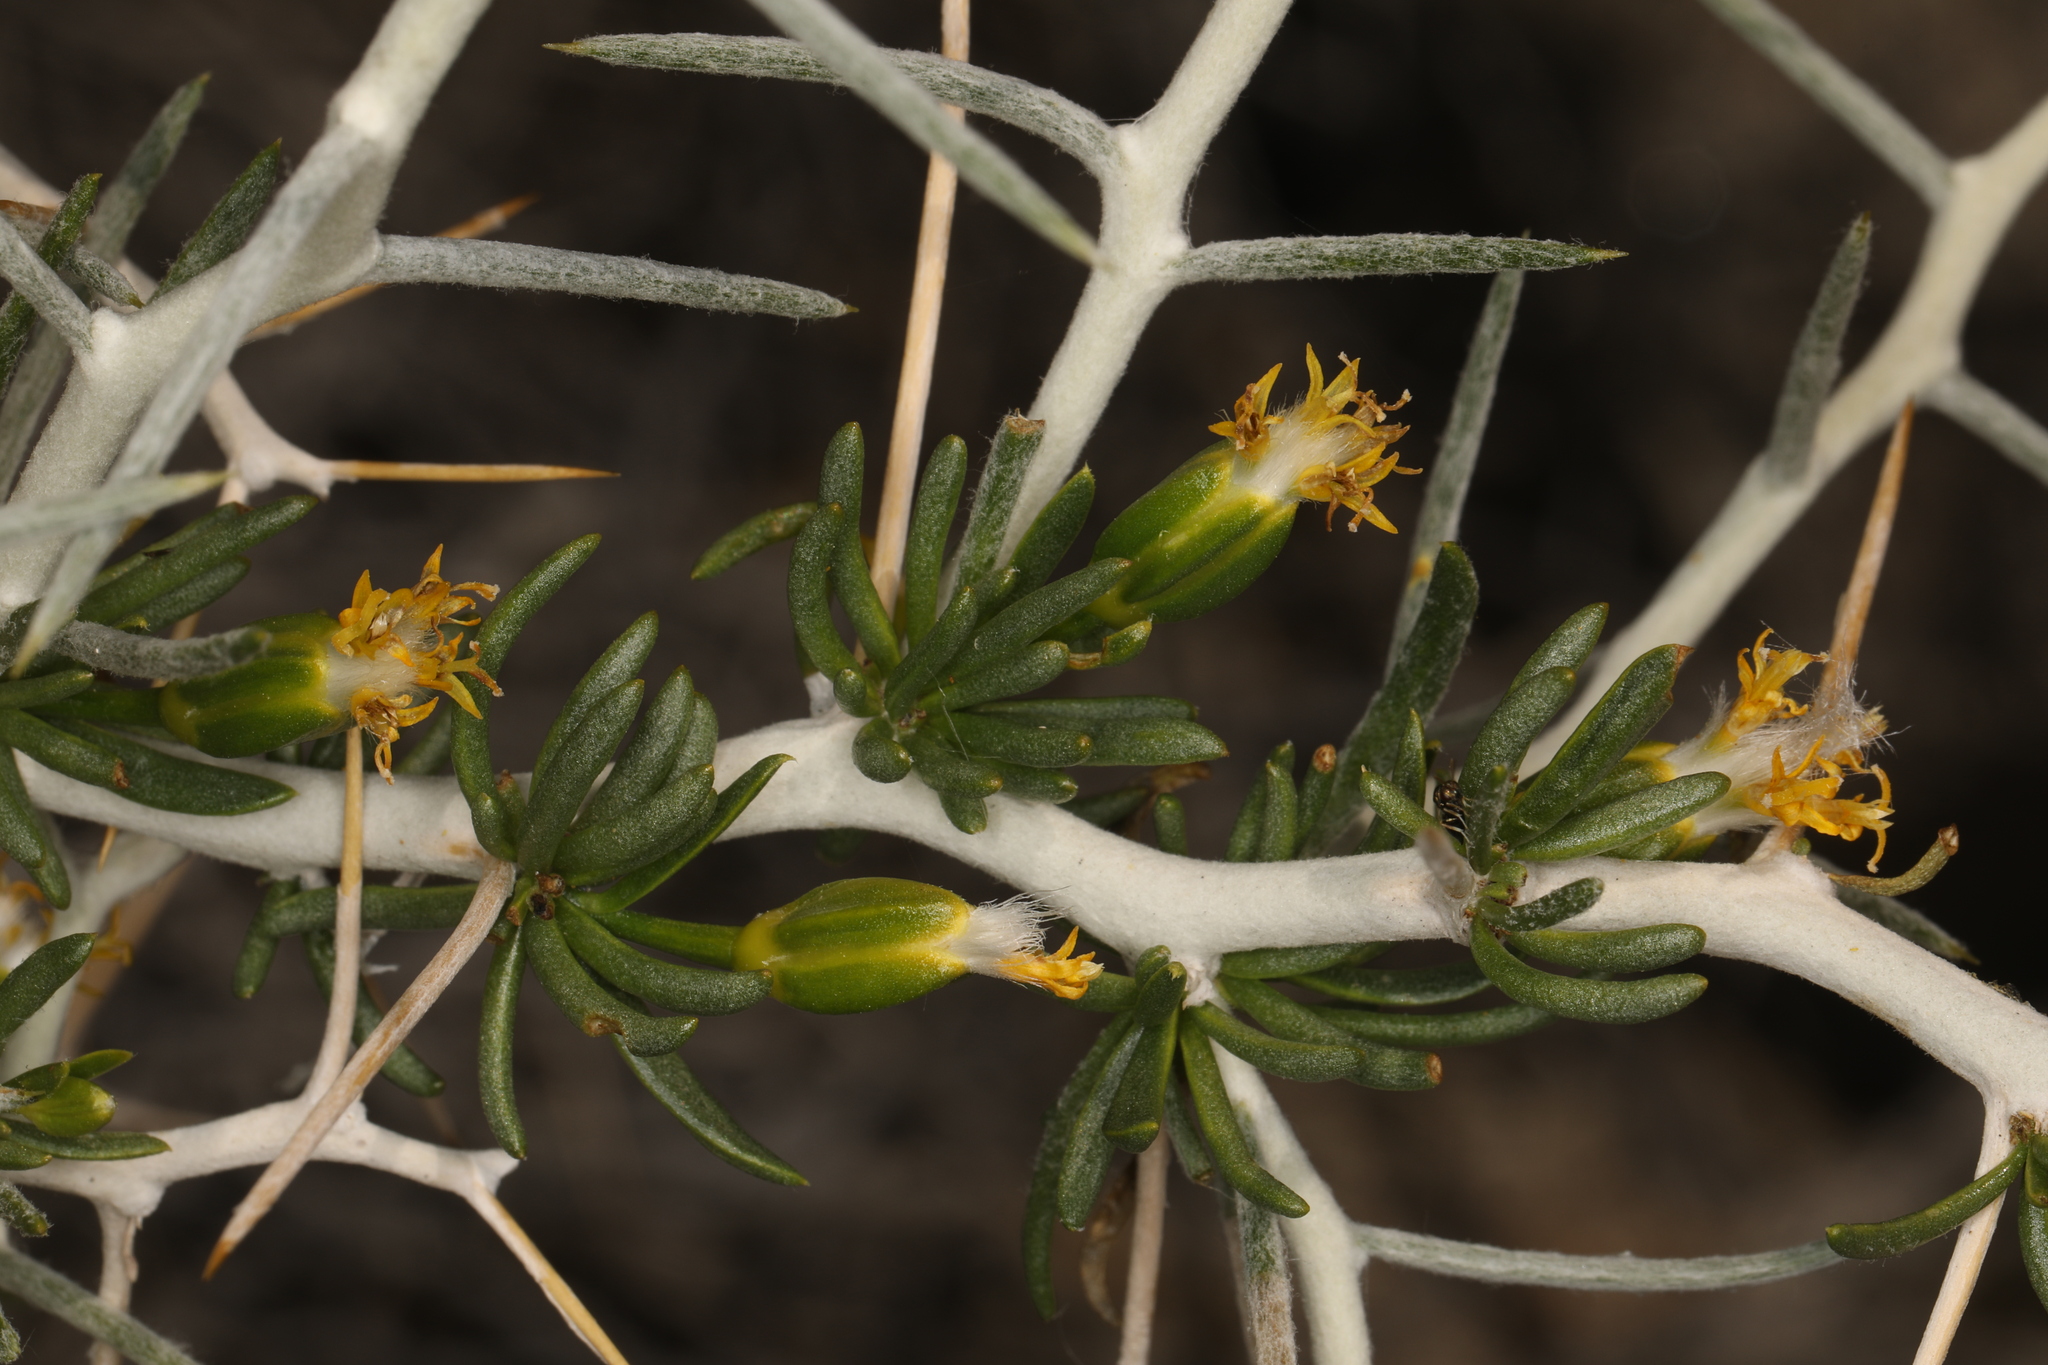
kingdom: Plantae
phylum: Tracheophyta
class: Magnoliopsida
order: Asterales
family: Asteraceae
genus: Tetradymia
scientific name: Tetradymia axillaris
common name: Long-spine horsebrush
